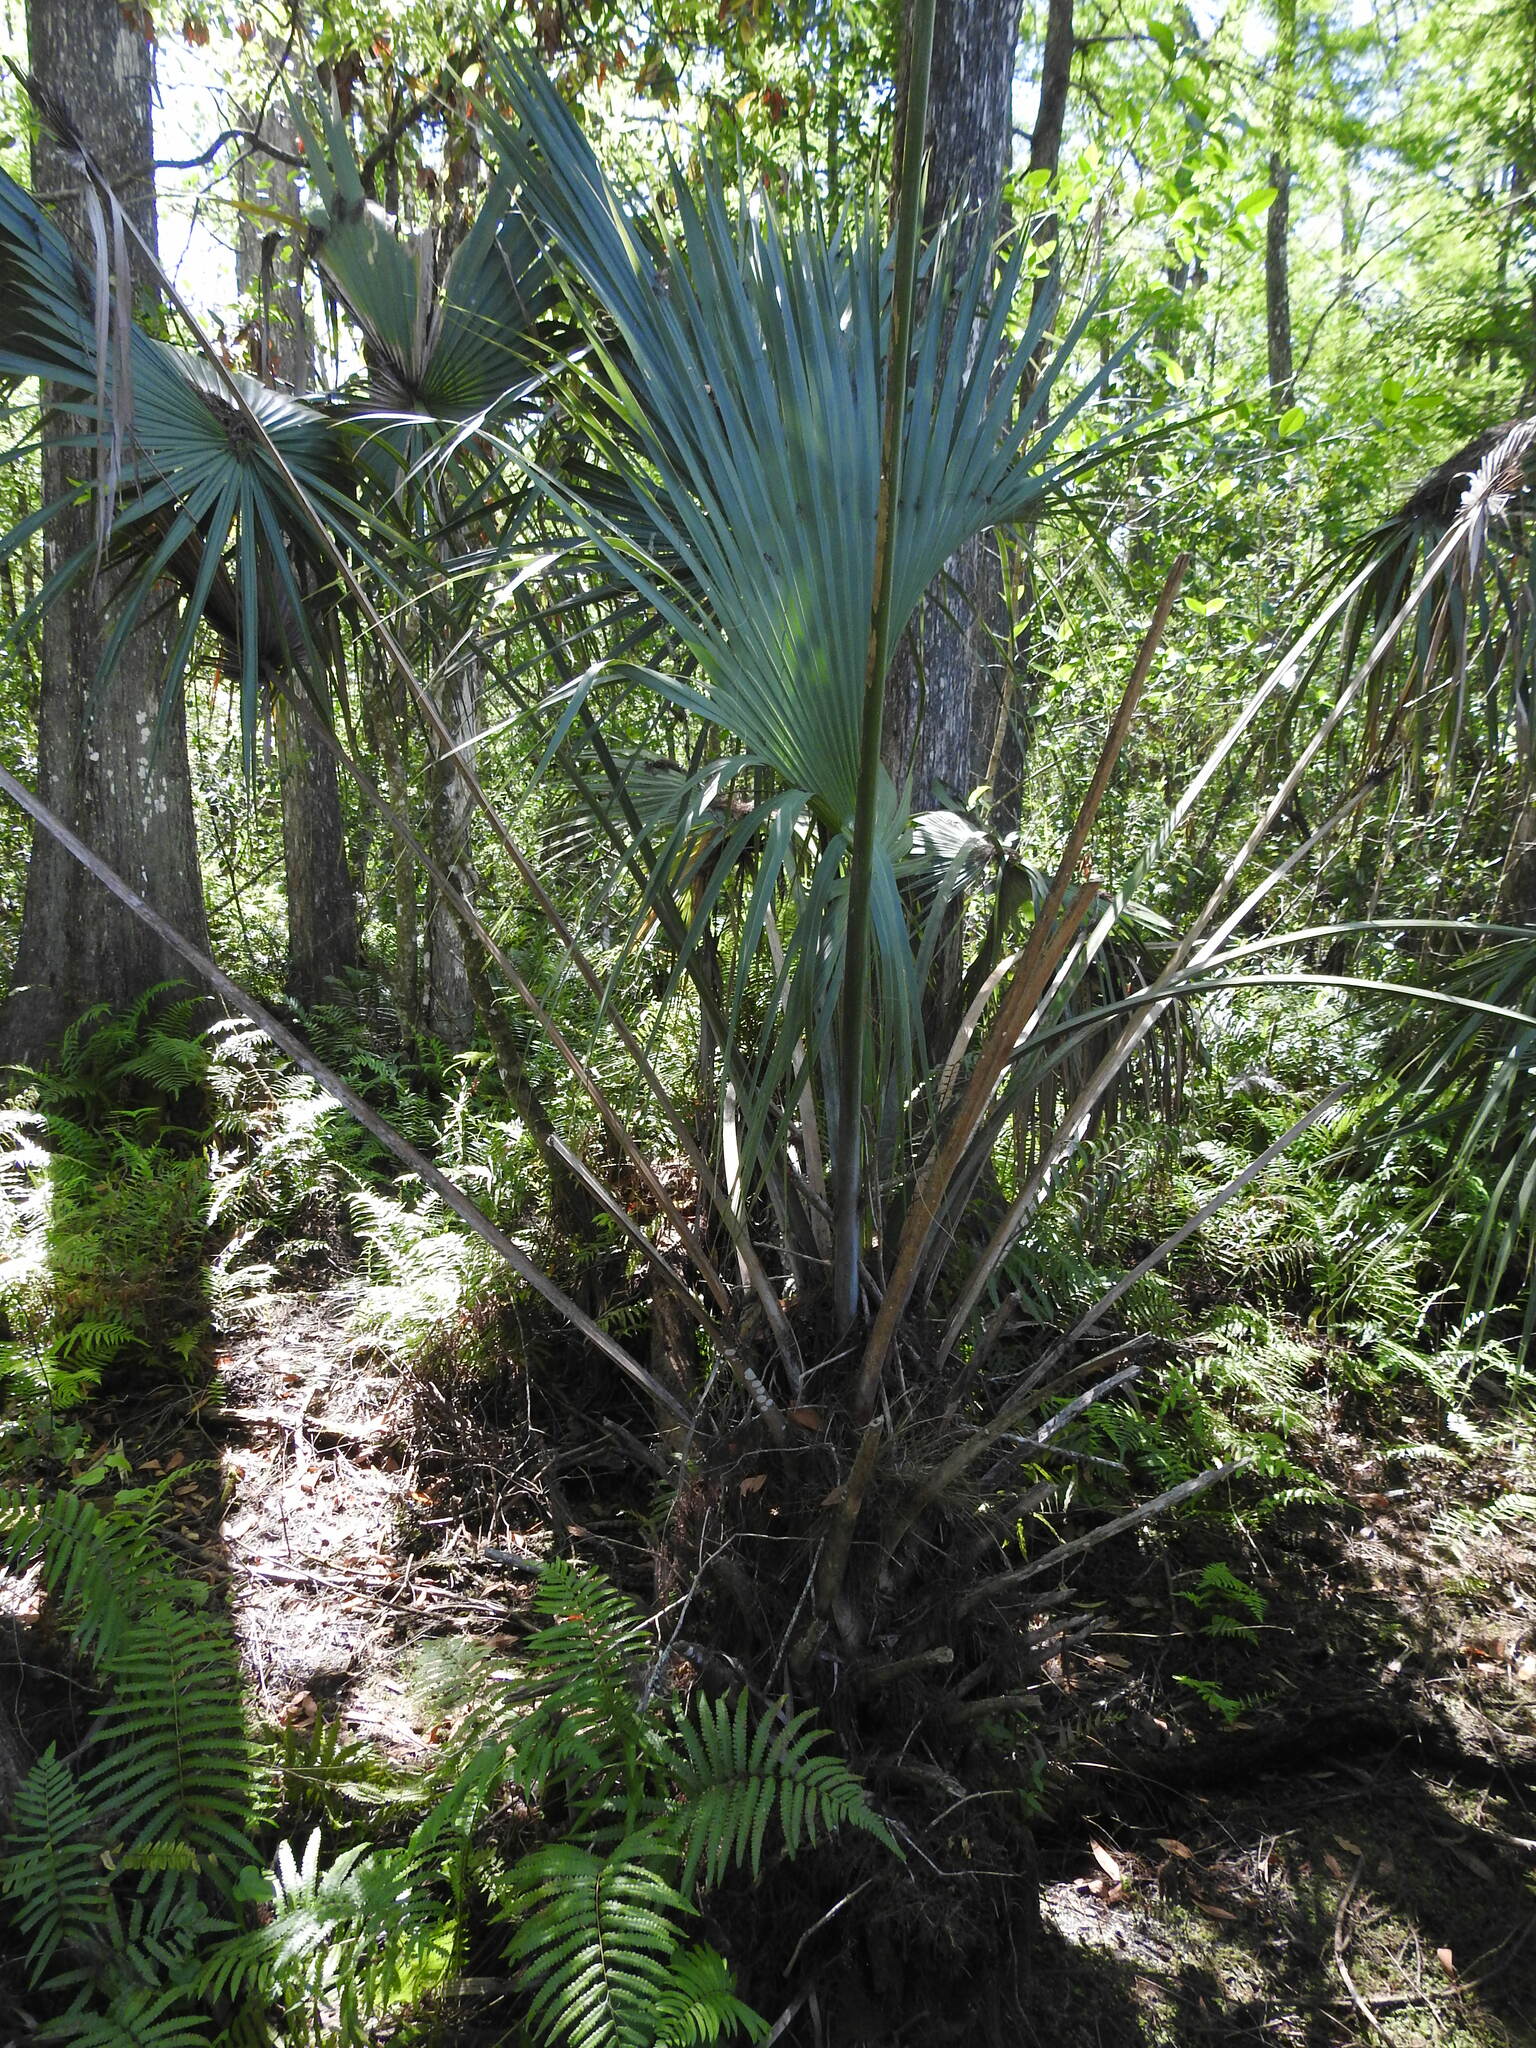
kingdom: Plantae
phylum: Tracheophyta
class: Liliopsida
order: Arecales
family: Arecaceae
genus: Sabal
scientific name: Sabal palmetto
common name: Blue palmetto
